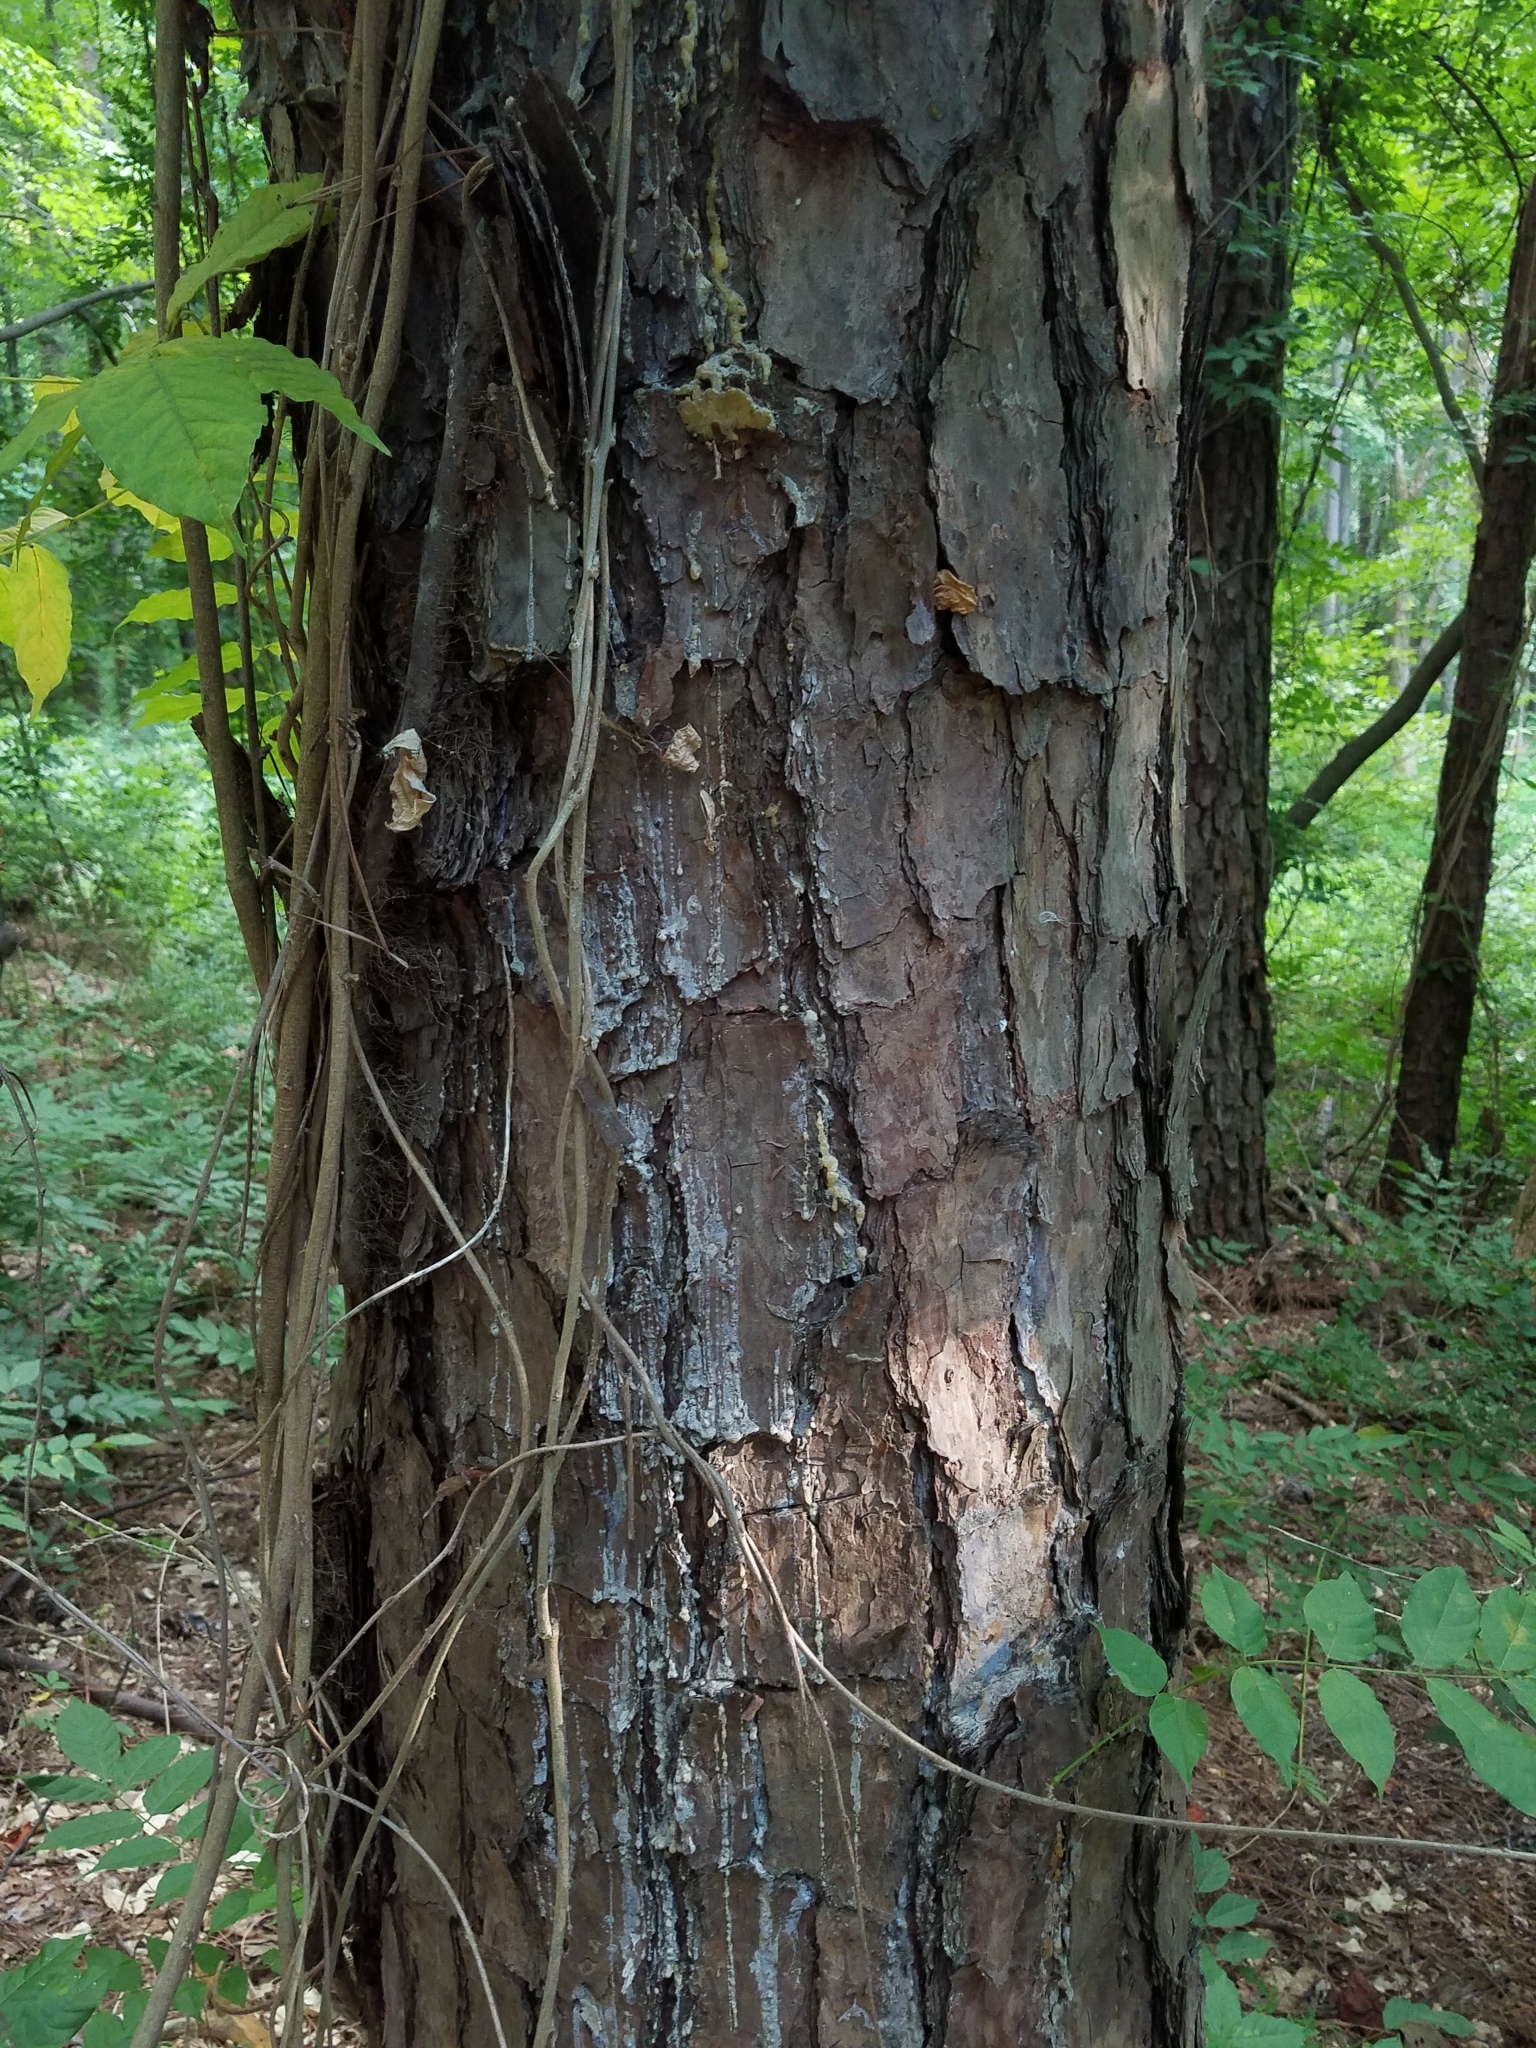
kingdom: Plantae
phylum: Tracheophyta
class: Pinopsida
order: Pinales
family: Pinaceae
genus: Pinus
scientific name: Pinus echinata
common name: Shortleaf pine
